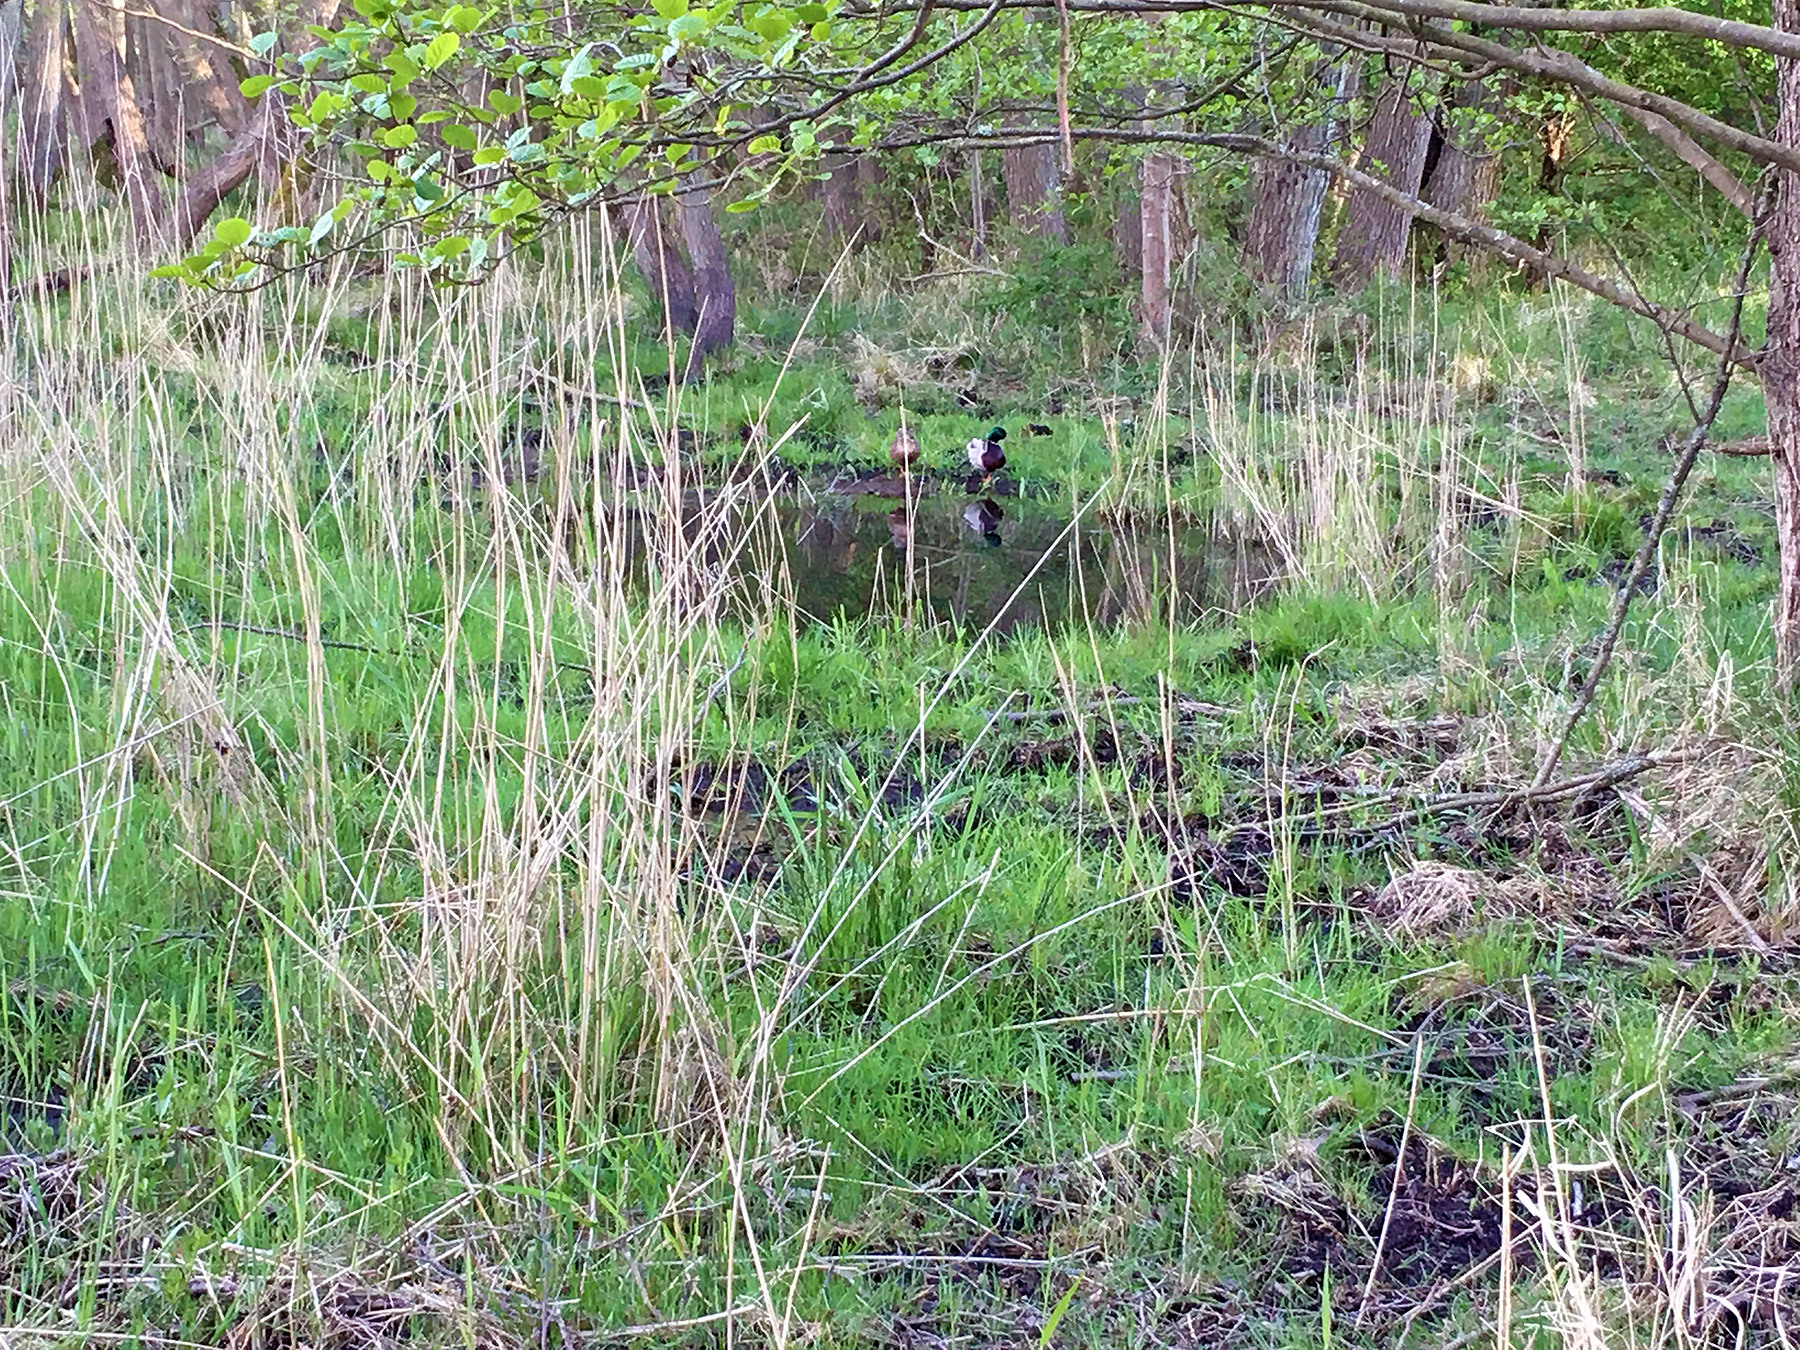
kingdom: Animalia
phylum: Chordata
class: Aves
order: Anseriformes
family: Anatidae
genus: Anas
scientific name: Anas platyrhynchos
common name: Mallard
